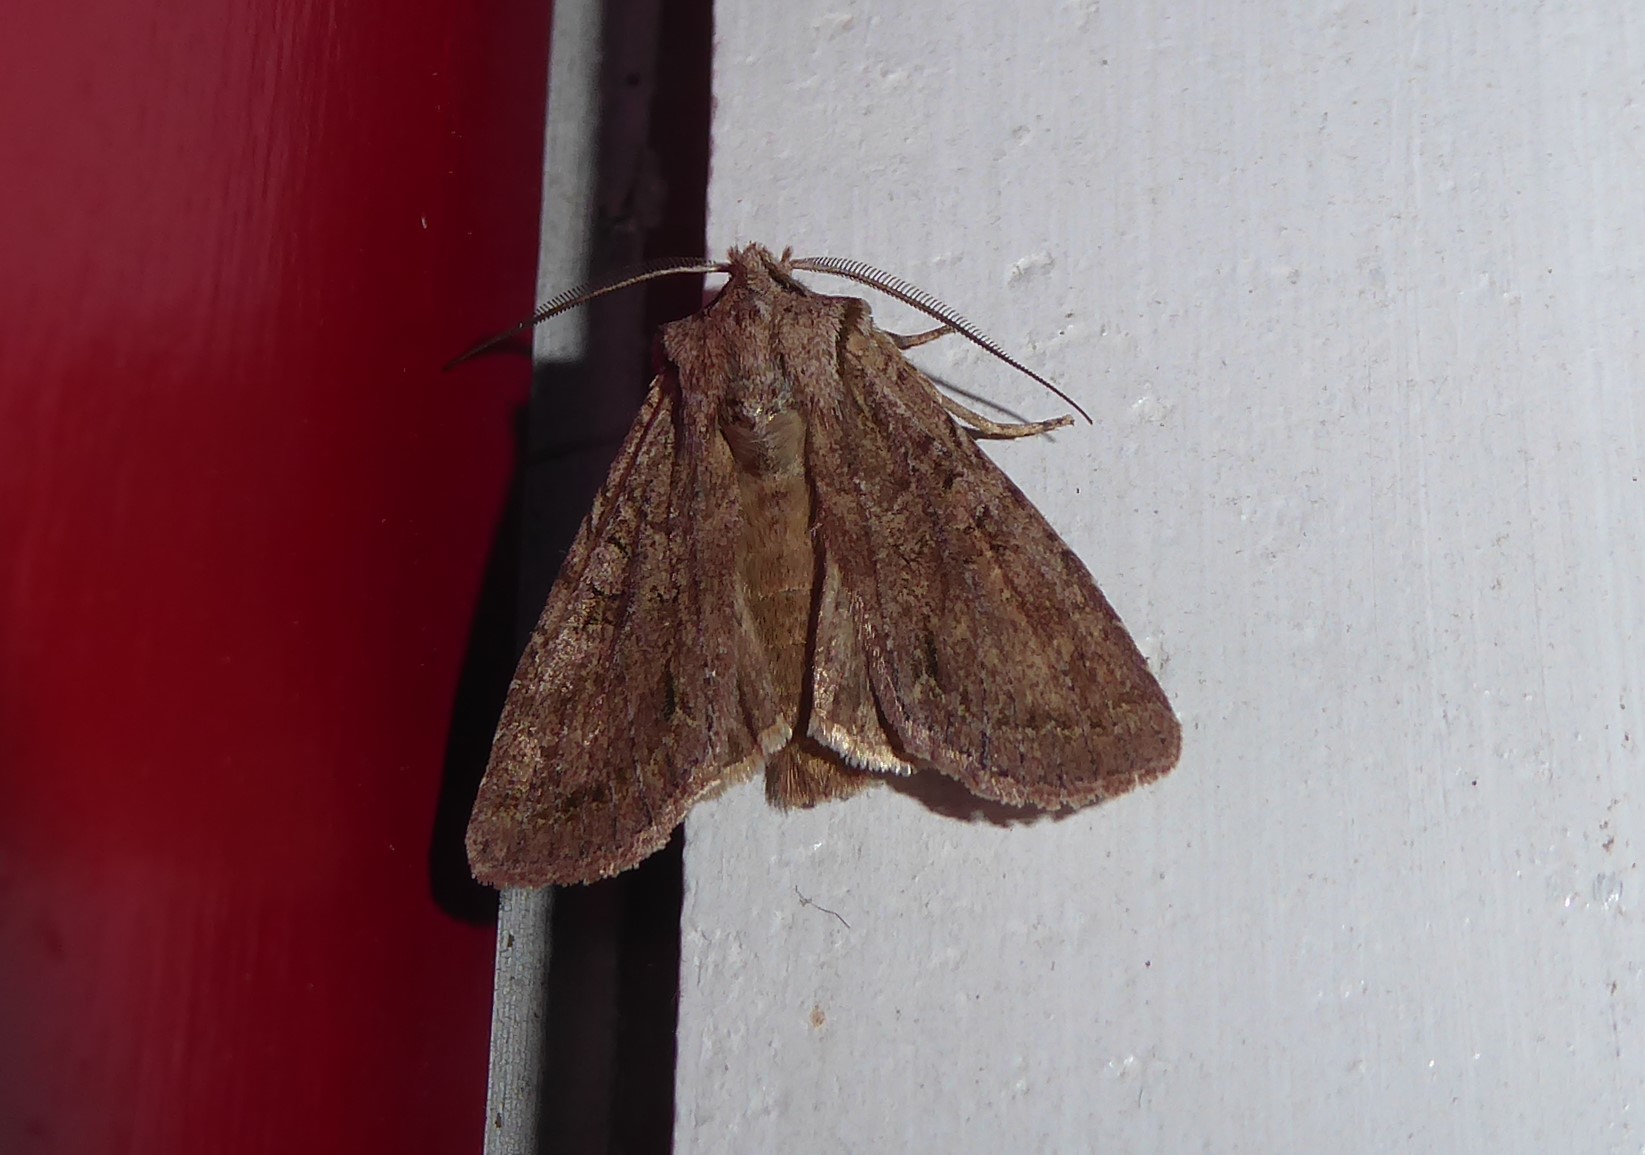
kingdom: Animalia
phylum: Arthropoda
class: Insecta
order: Lepidoptera
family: Noctuidae
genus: Ichneutica
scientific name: Ichneutica
